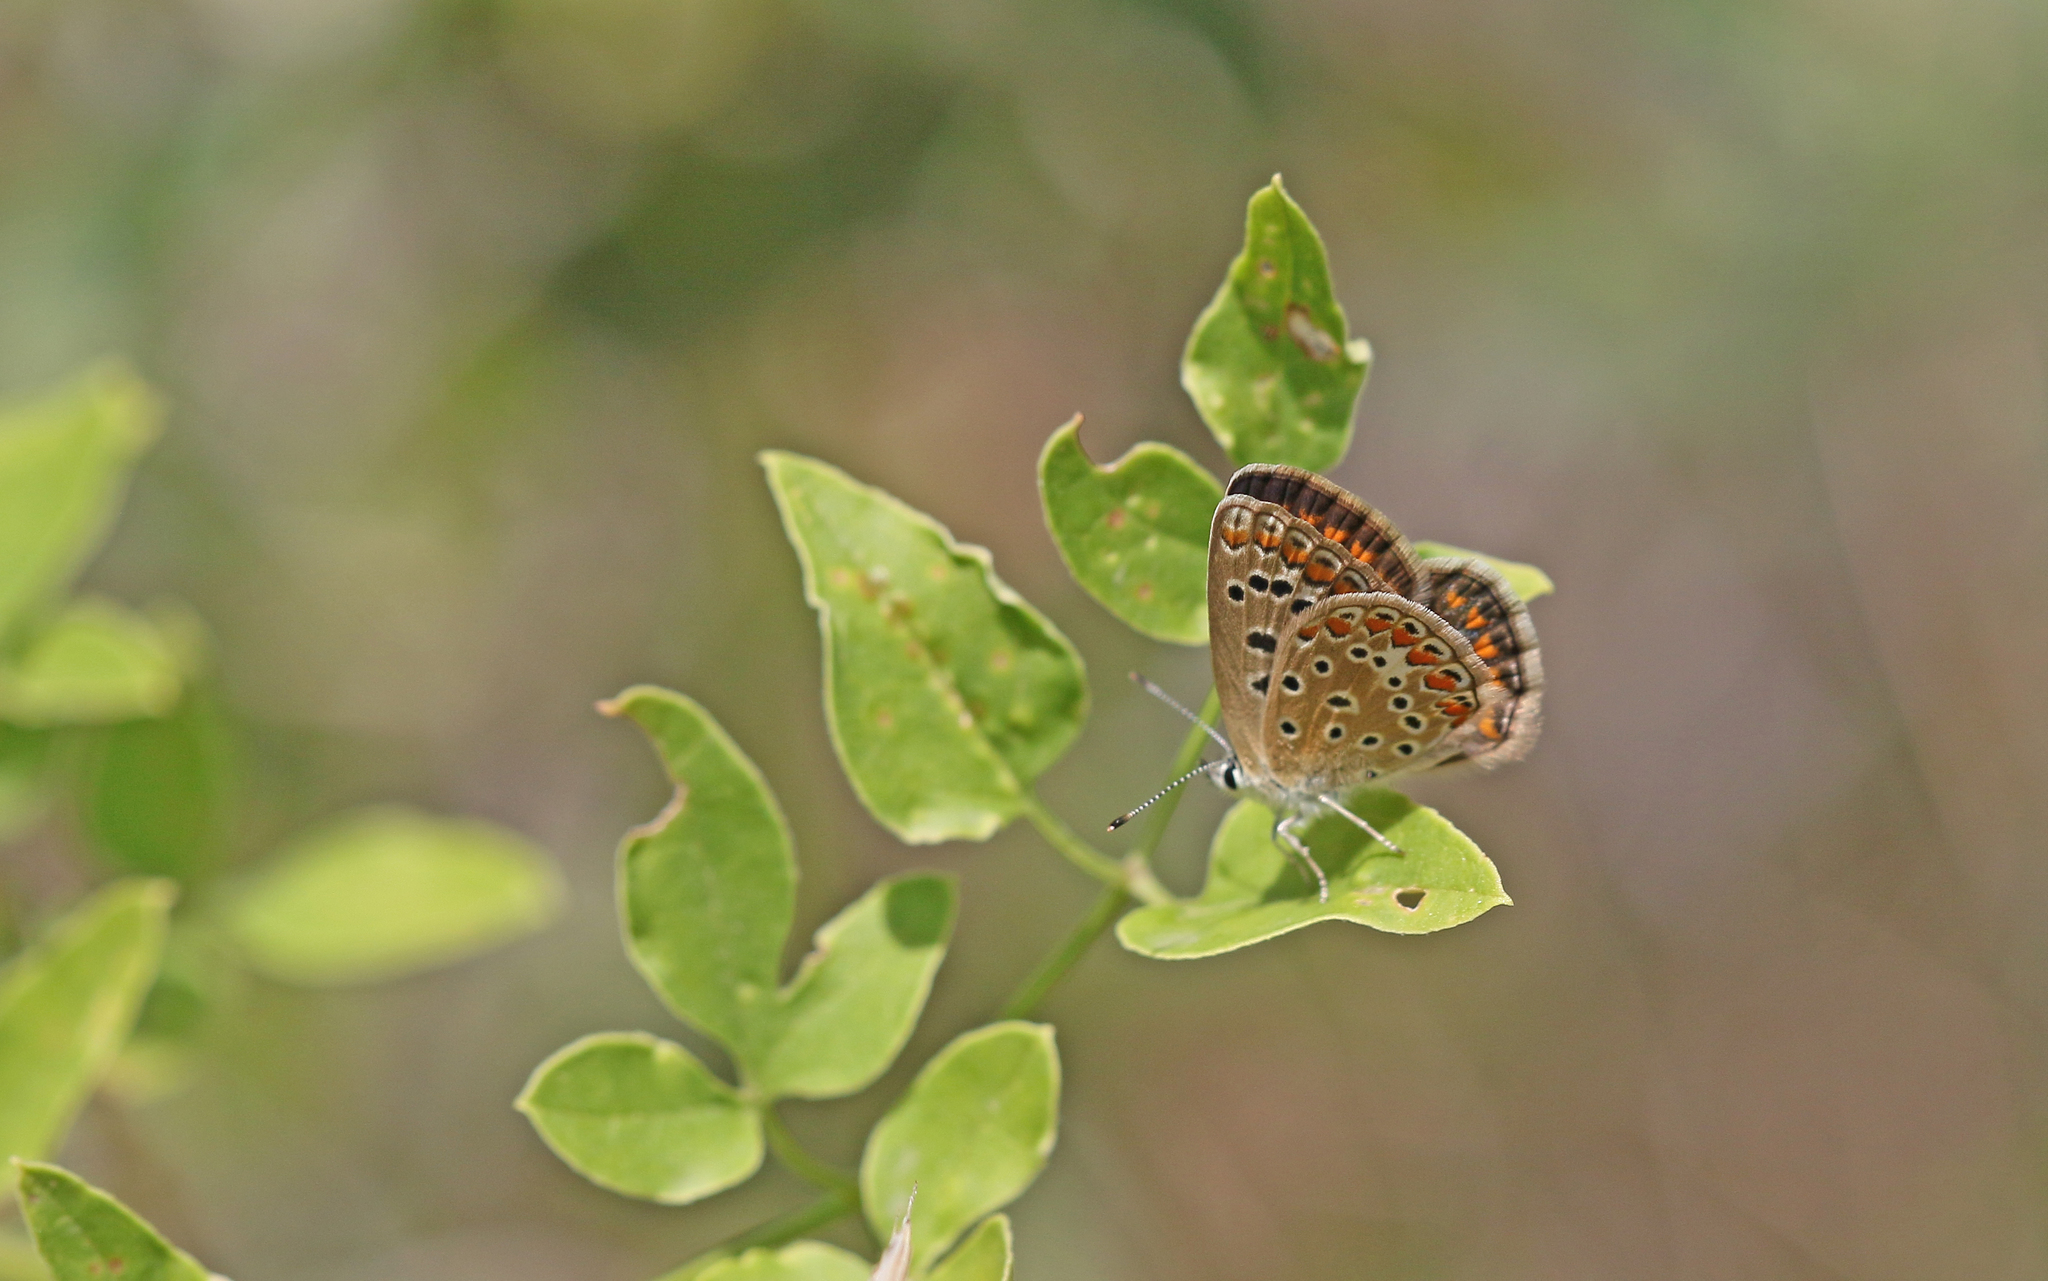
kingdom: Animalia
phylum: Arthropoda
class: Insecta
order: Lepidoptera
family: Lycaenidae
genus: Polyommatus
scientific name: Polyommatus icarus
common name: Common blue
